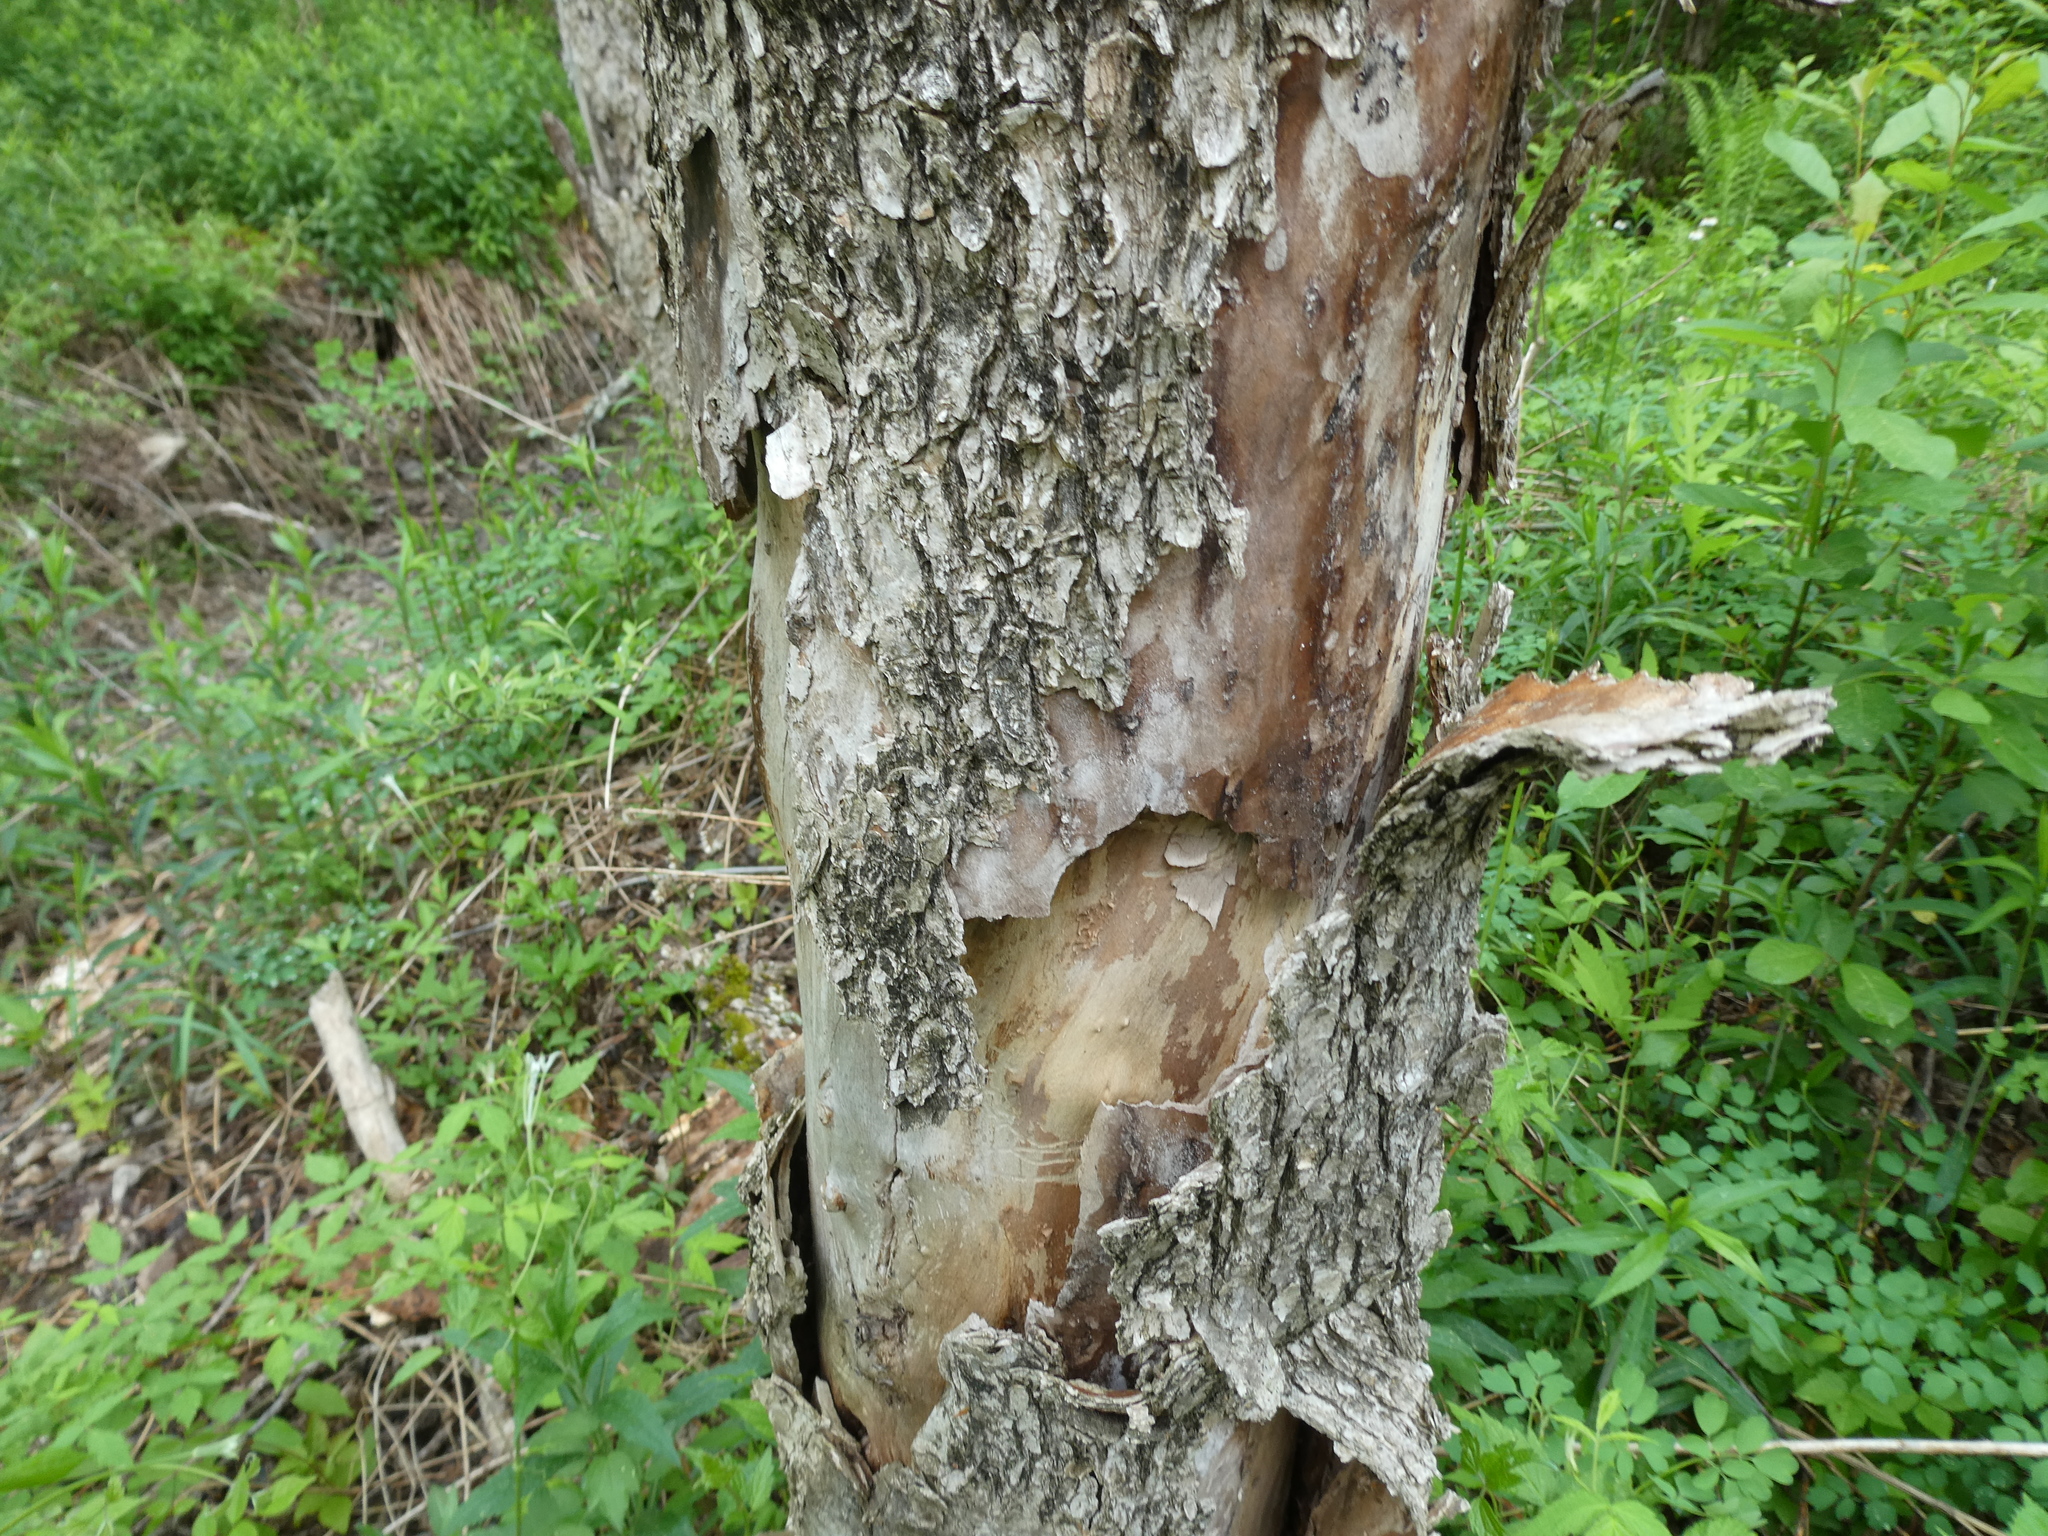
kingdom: Fungi
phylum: Basidiomycota
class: Agaricomycetes
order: Polyporales
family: Polyporaceae
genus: Cerioporus
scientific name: Cerioporus squamosus
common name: Dryad's saddle
